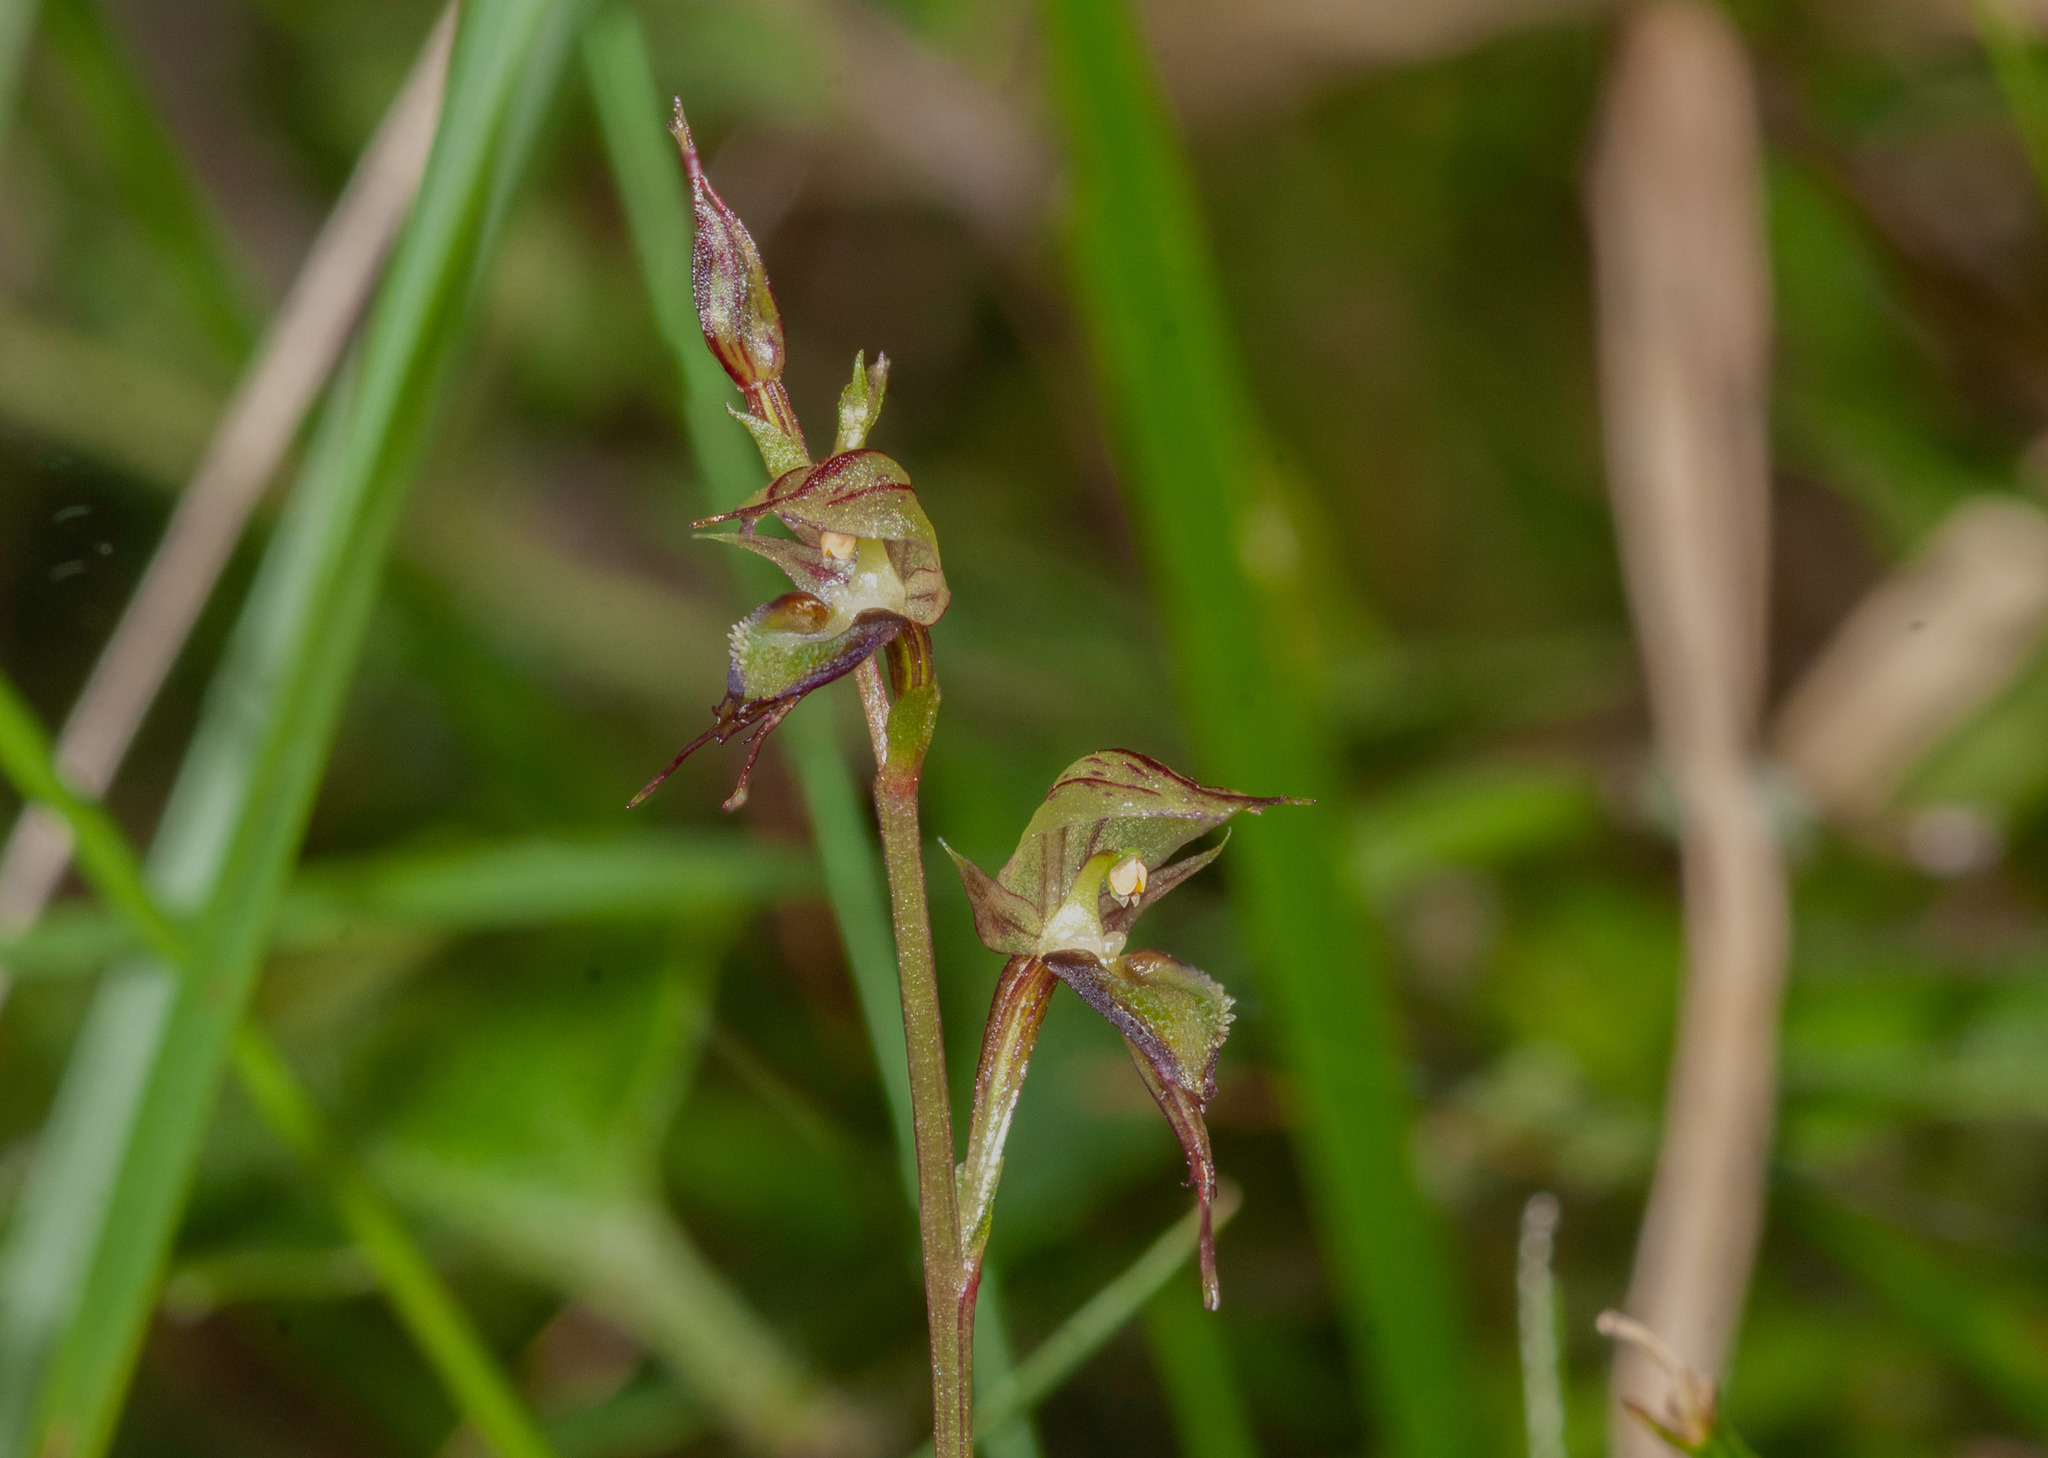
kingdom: Plantae
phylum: Tracheophyta
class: Liliopsida
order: Asparagales
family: Orchidaceae
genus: Acianthus
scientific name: Acianthus fornicatus
